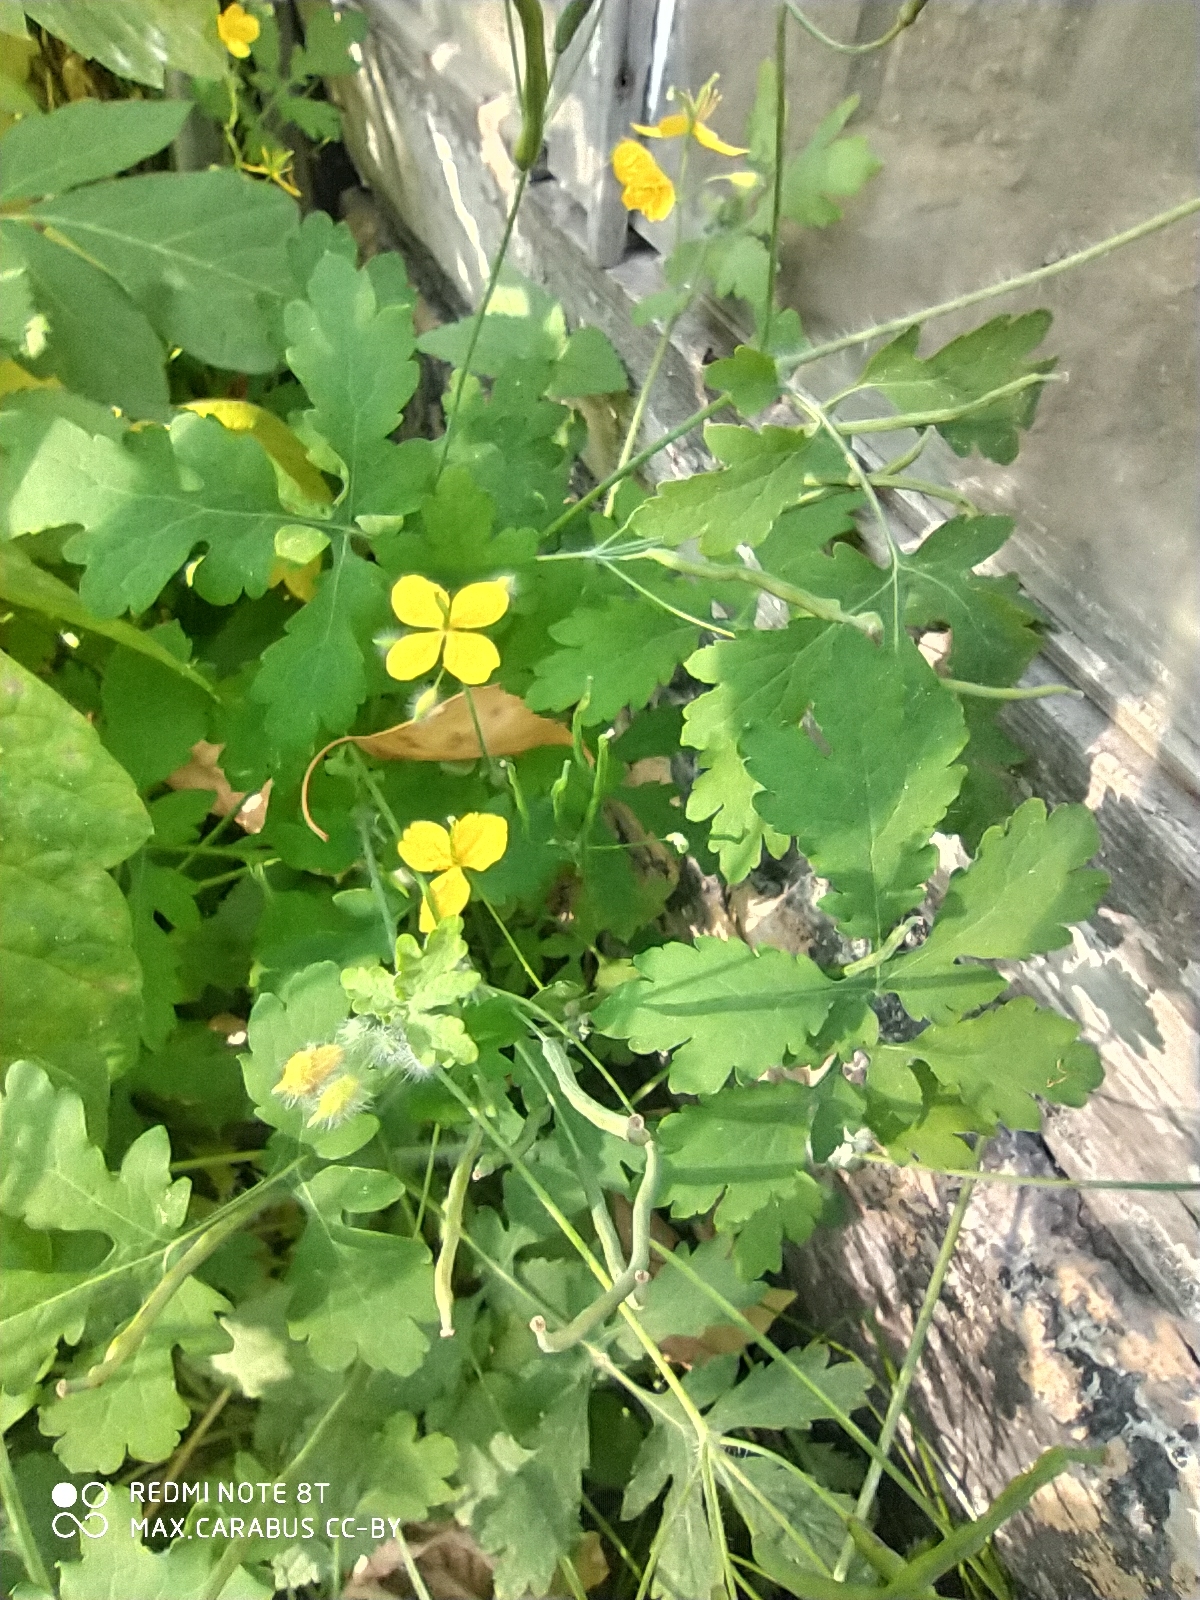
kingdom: Plantae
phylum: Tracheophyta
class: Magnoliopsida
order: Ranunculales
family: Papaveraceae
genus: Chelidonium
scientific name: Chelidonium majus
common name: Greater celandine
